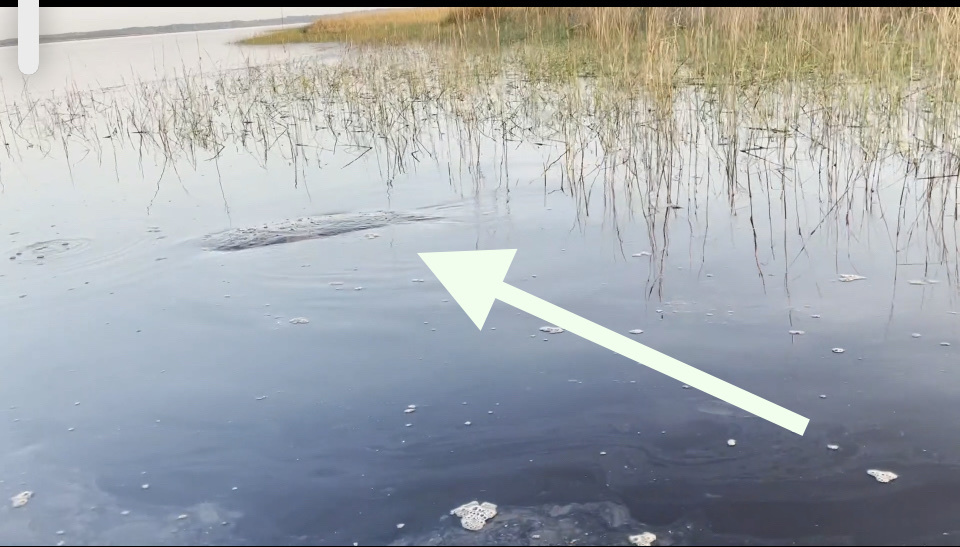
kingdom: Animalia
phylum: Chordata
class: Mammalia
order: Sirenia
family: Trichechidae
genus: Trichechus
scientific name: Trichechus manatus
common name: West indian manatee
